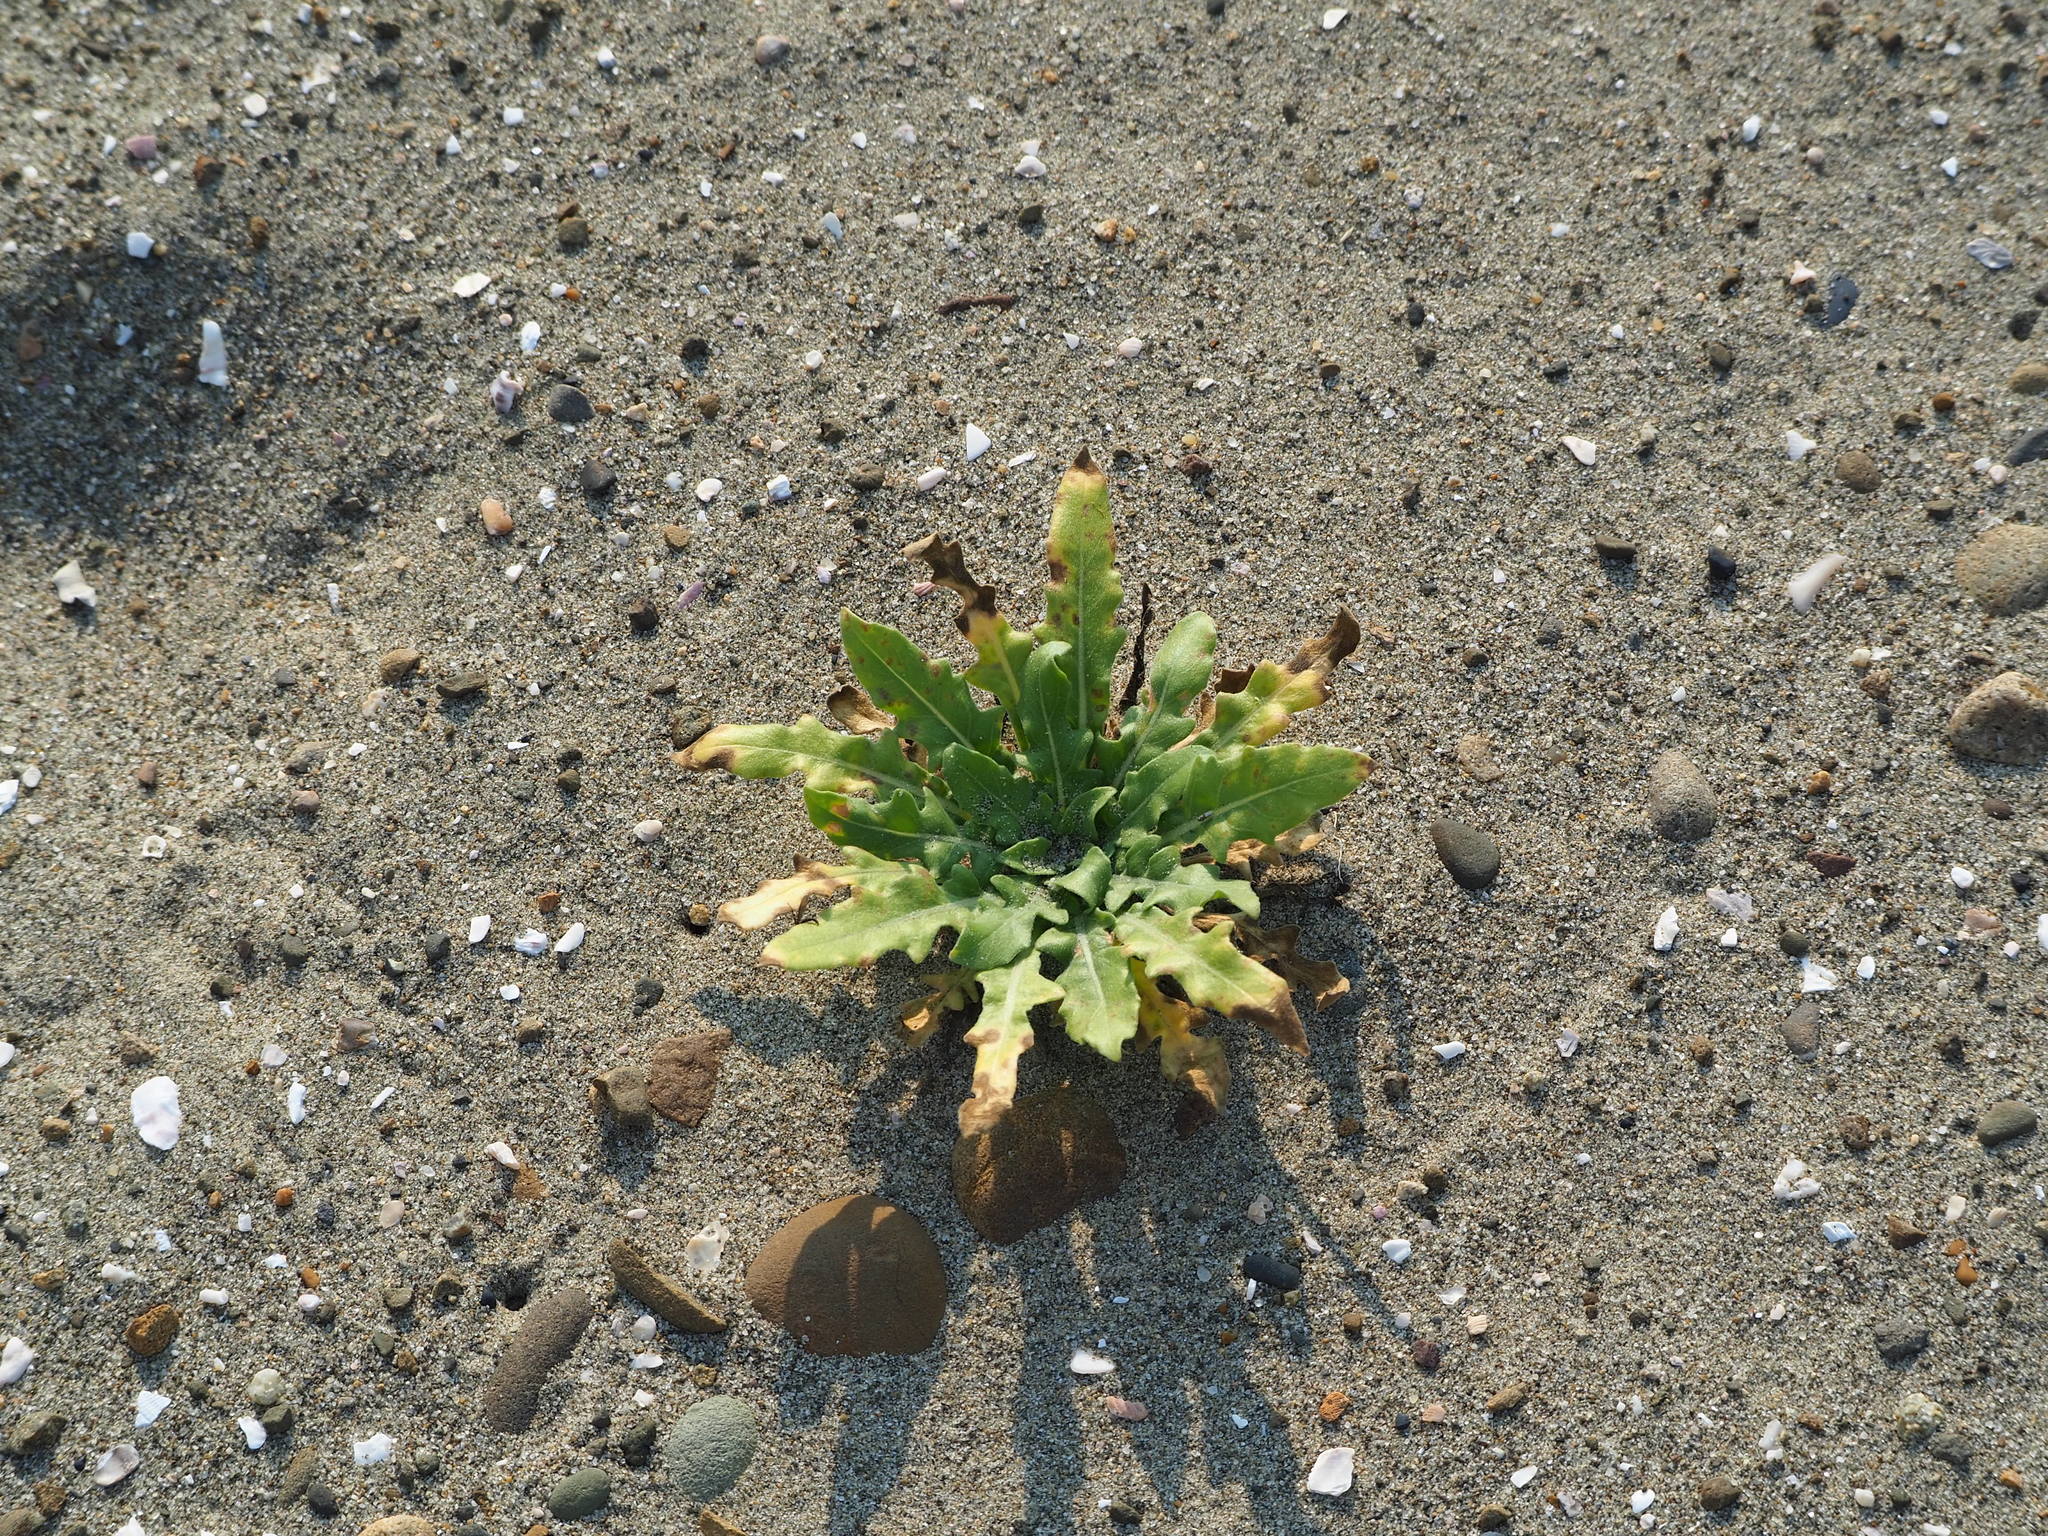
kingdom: Plantae
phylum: Tracheophyta
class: Magnoliopsida
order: Myrtales
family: Onagraceae
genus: Oenothera
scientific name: Oenothera laciniata
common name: Cut-leaved evening-primrose
